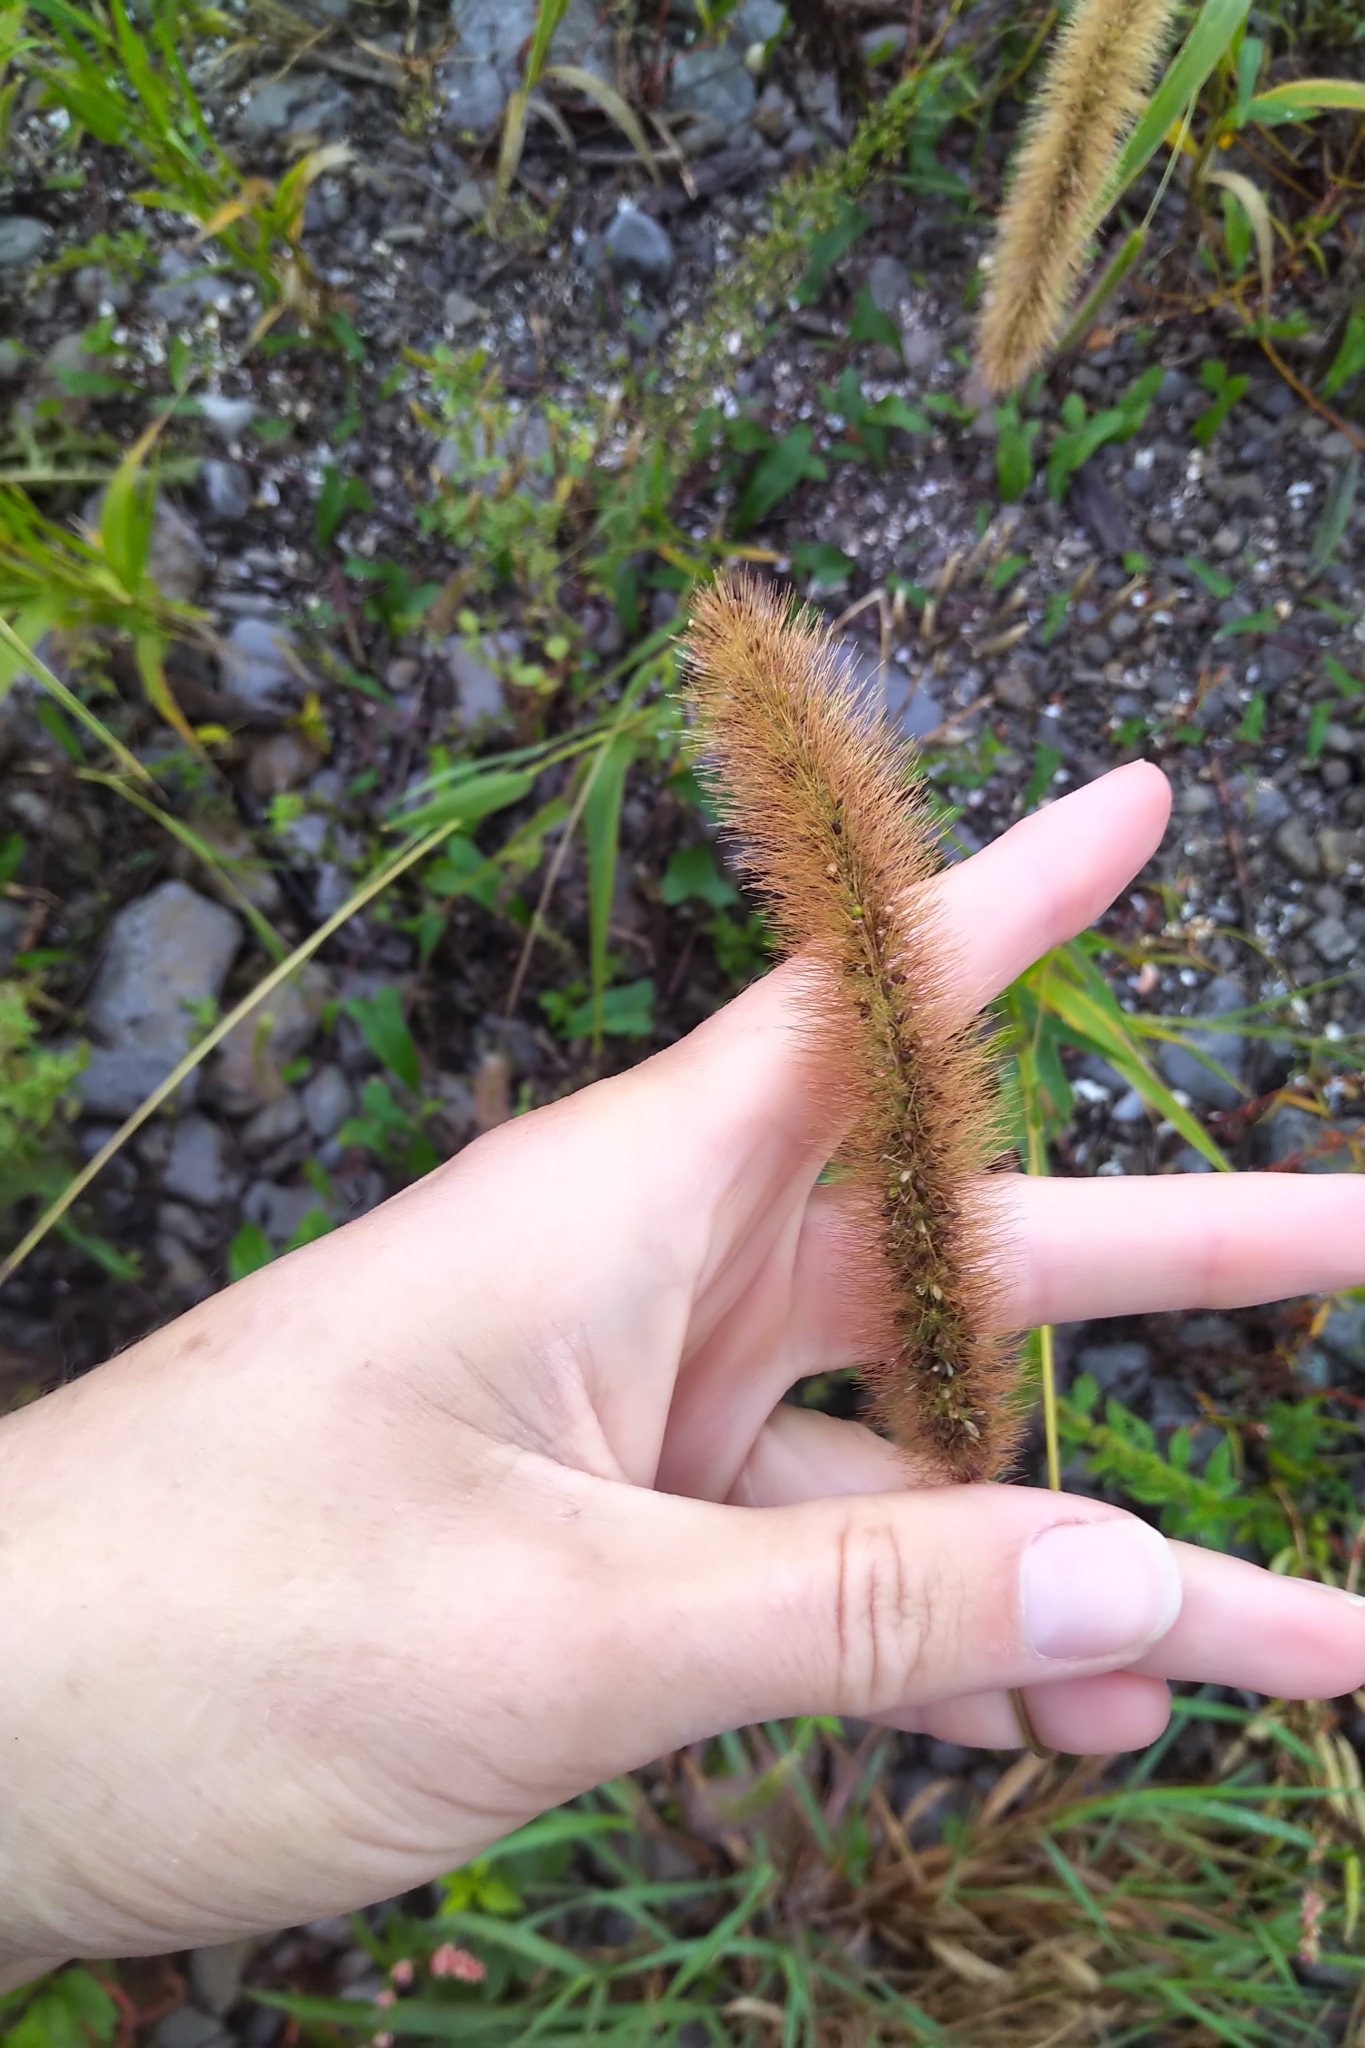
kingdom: Plantae
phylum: Tracheophyta
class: Liliopsida
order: Poales
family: Poaceae
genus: Setaria
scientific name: Setaria faberi
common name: Nodding bristle-grass
